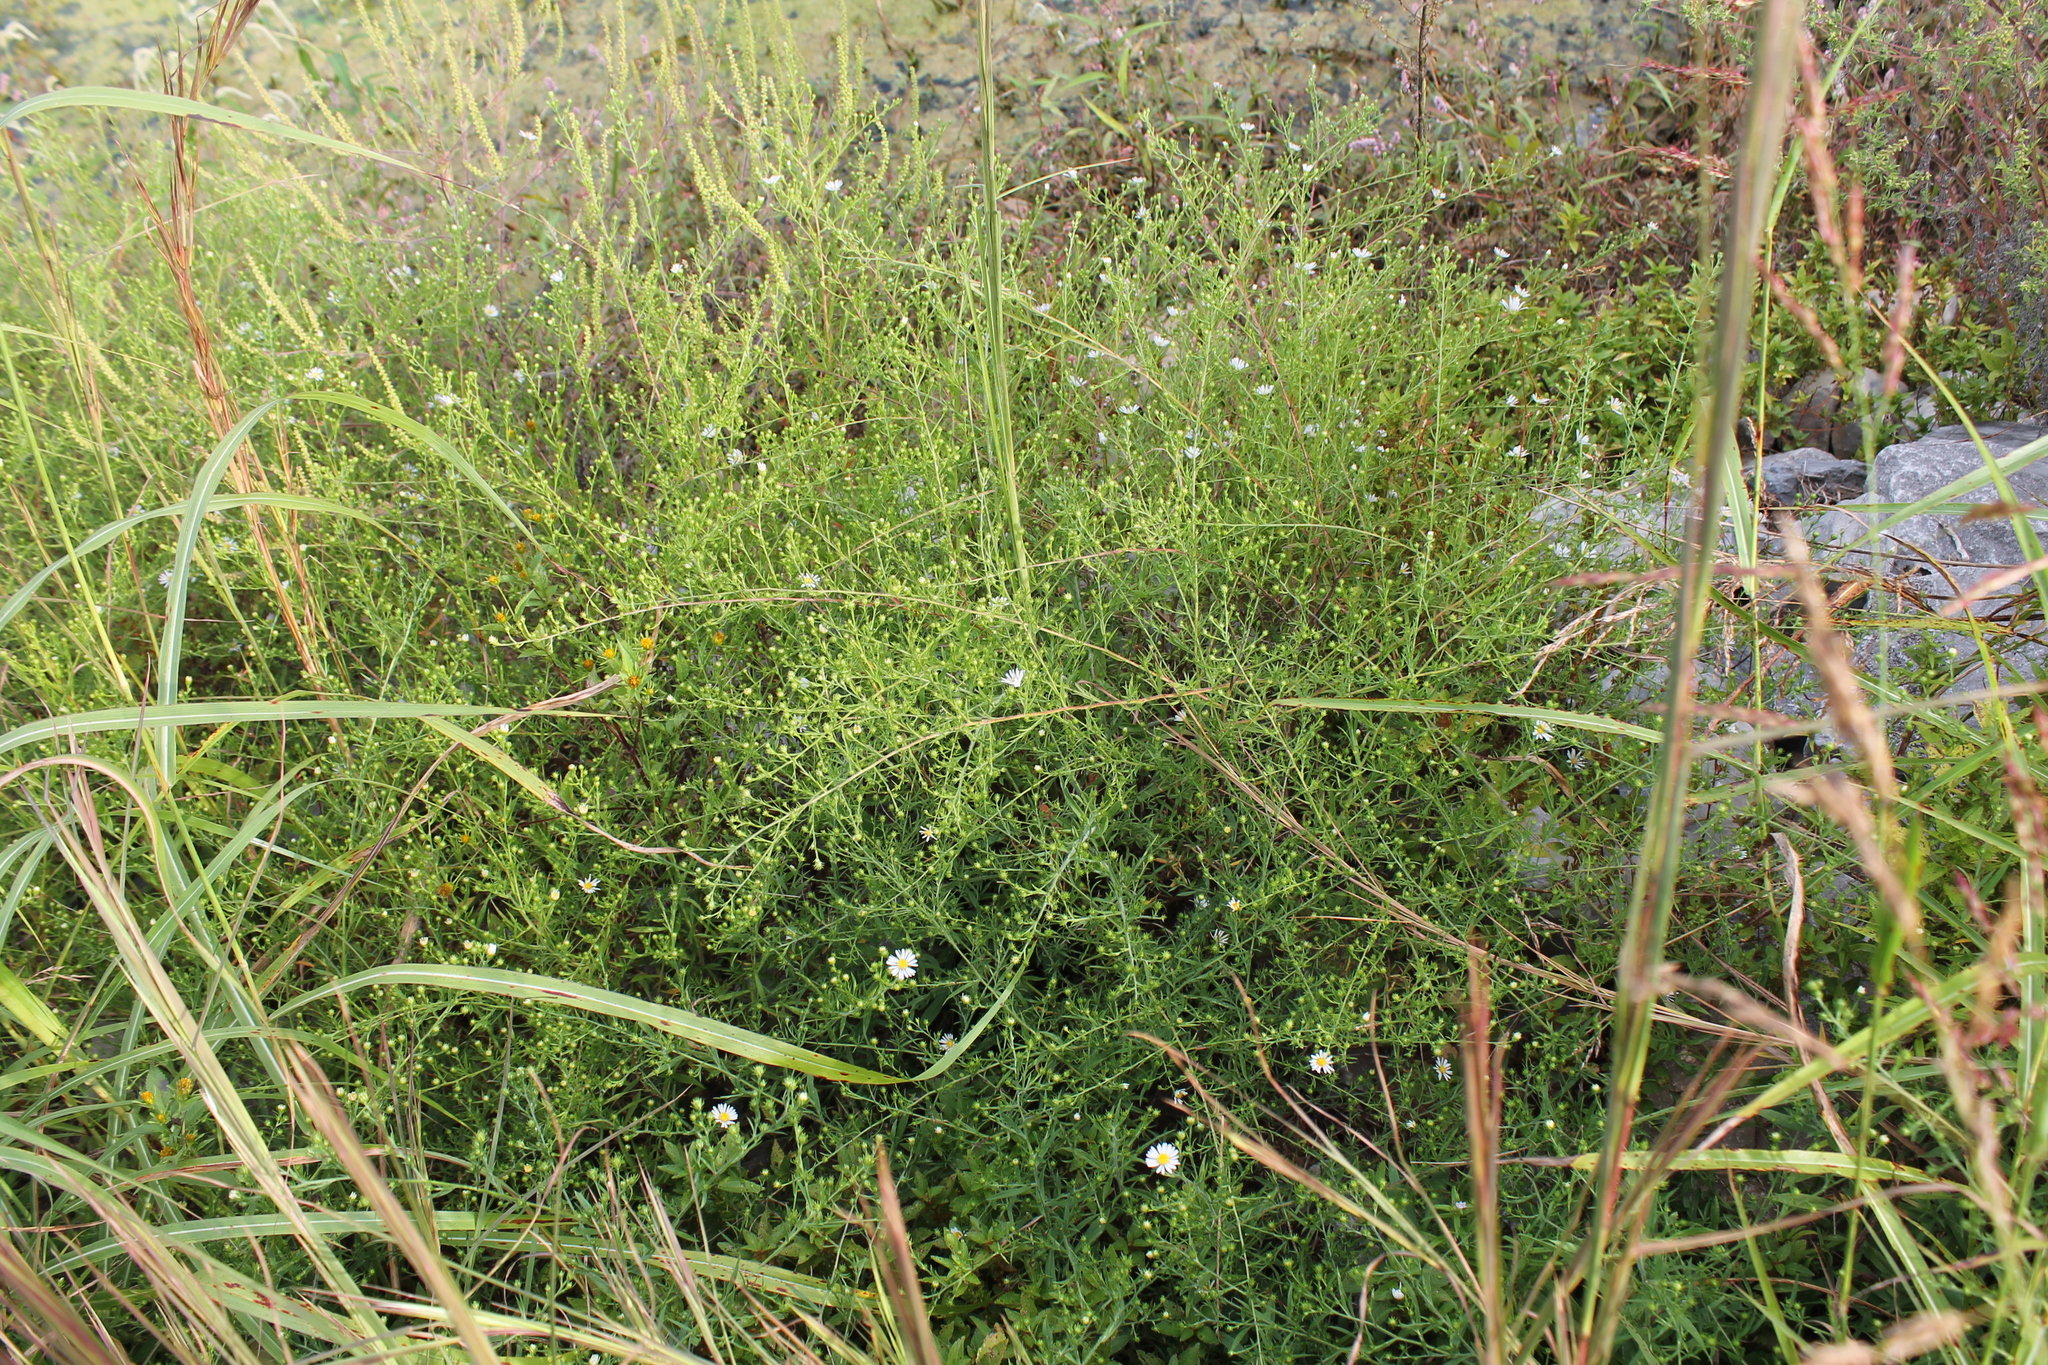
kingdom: Plantae
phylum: Tracheophyta
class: Magnoliopsida
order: Asterales
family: Asteraceae
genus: Symphyotrichum
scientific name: Symphyotrichum pilosum
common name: Awl aster
